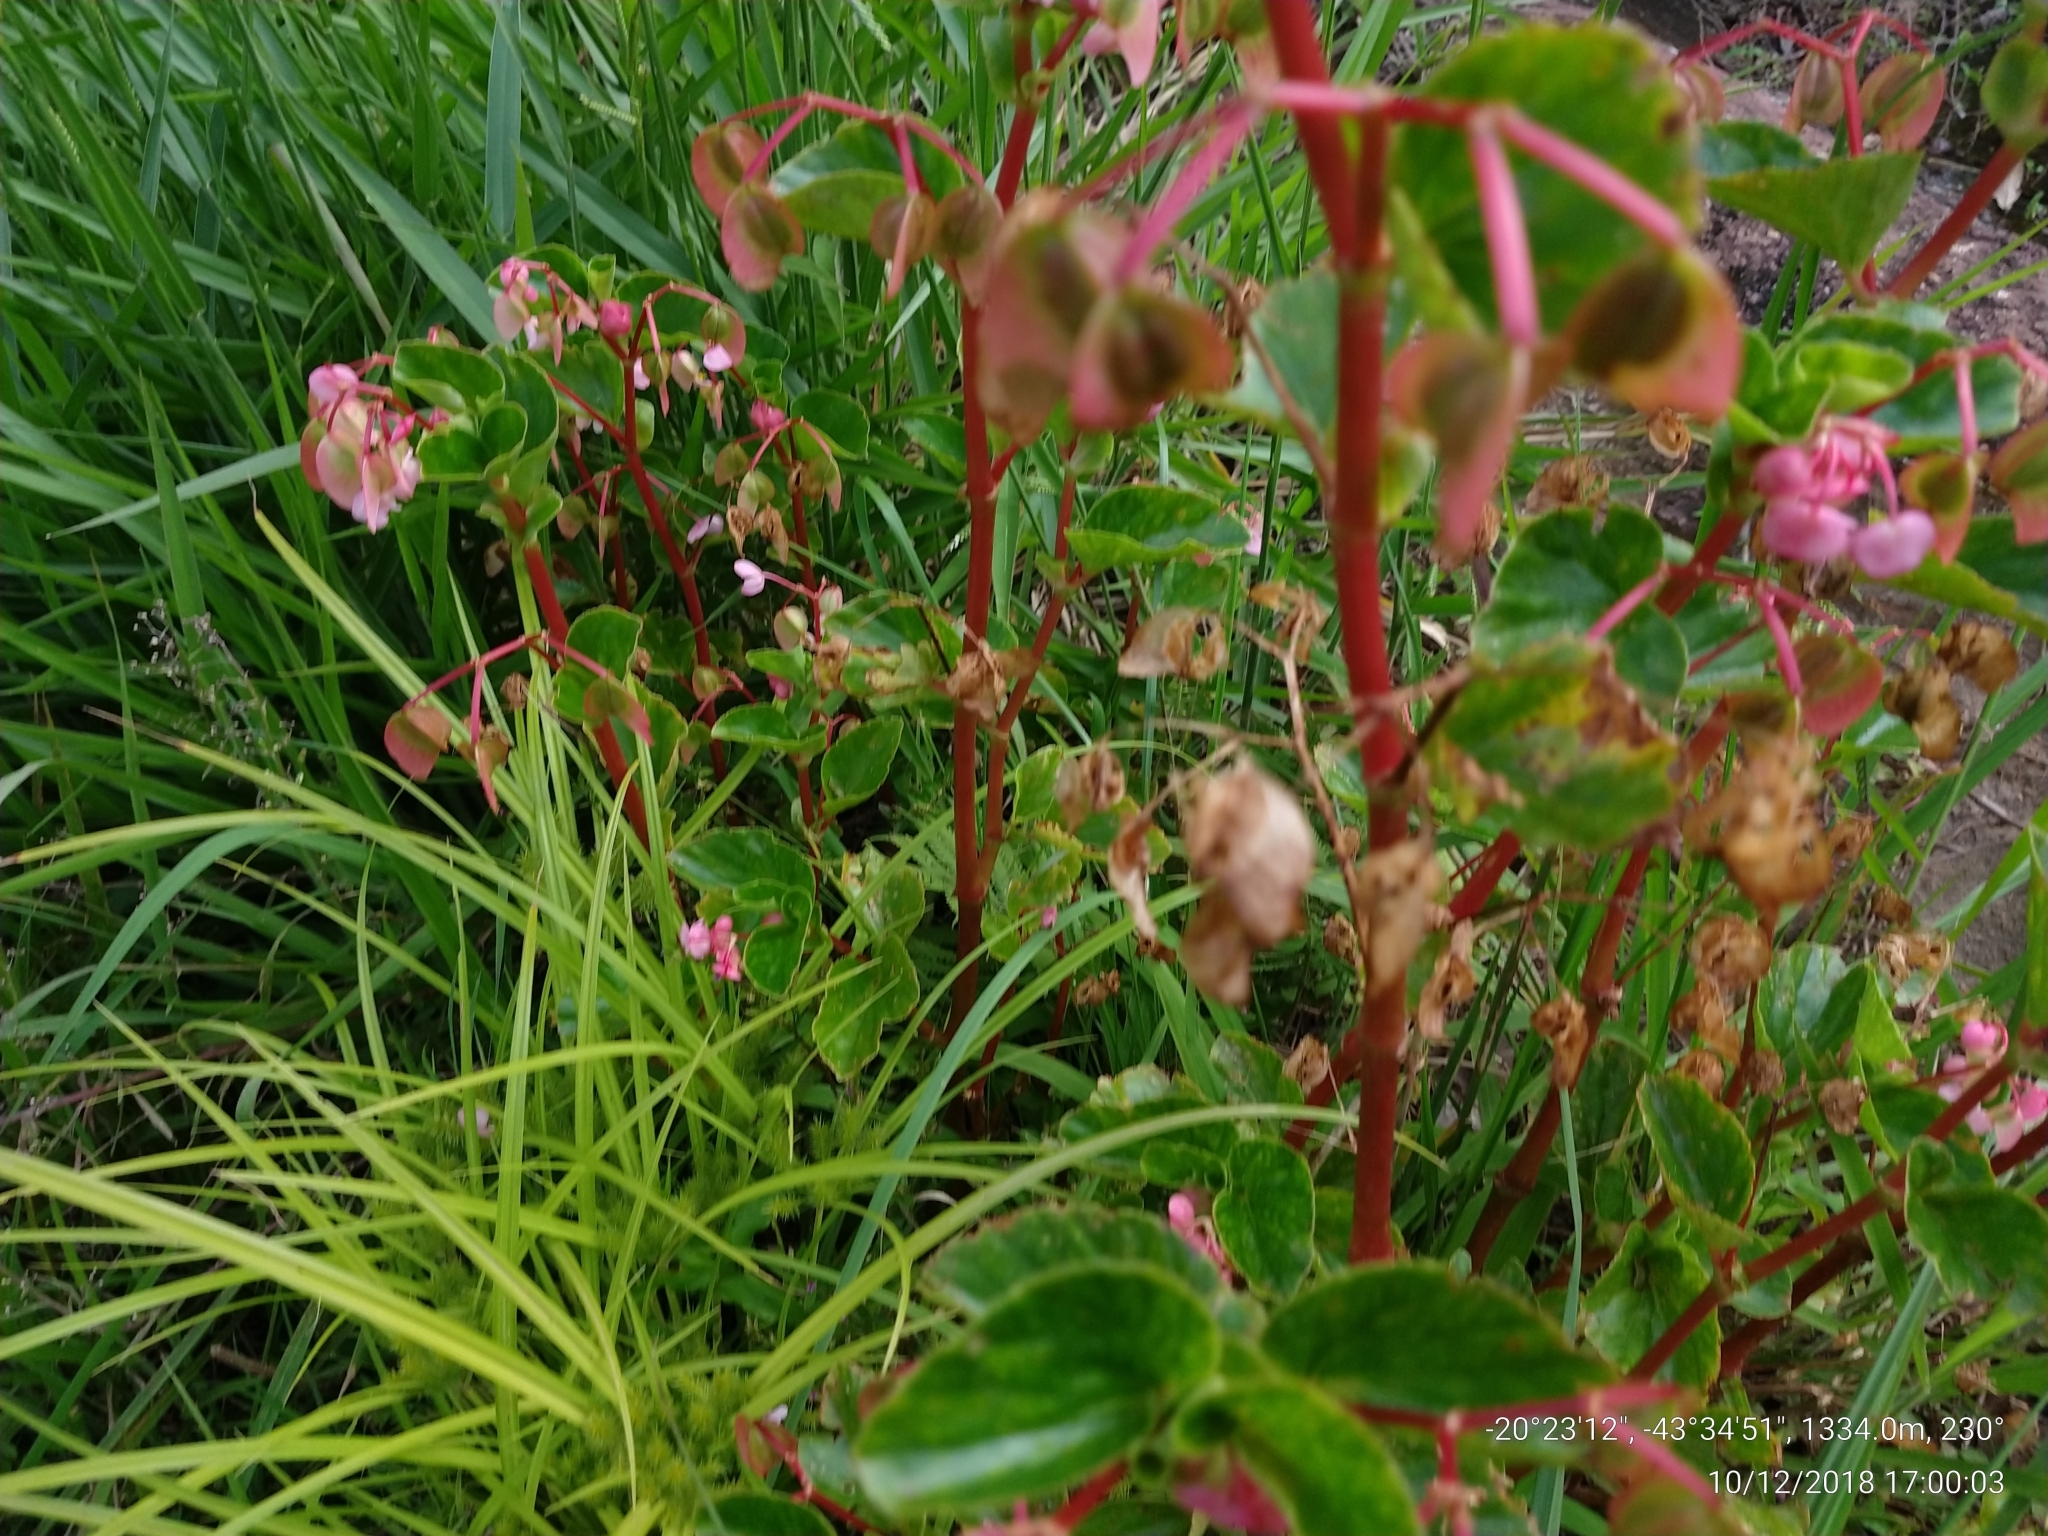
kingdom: Plantae
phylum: Tracheophyta
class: Magnoliopsida
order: Cucurbitales
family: Begoniaceae
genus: Begonia
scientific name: Begonia cucullata
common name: Clubbed begonia
